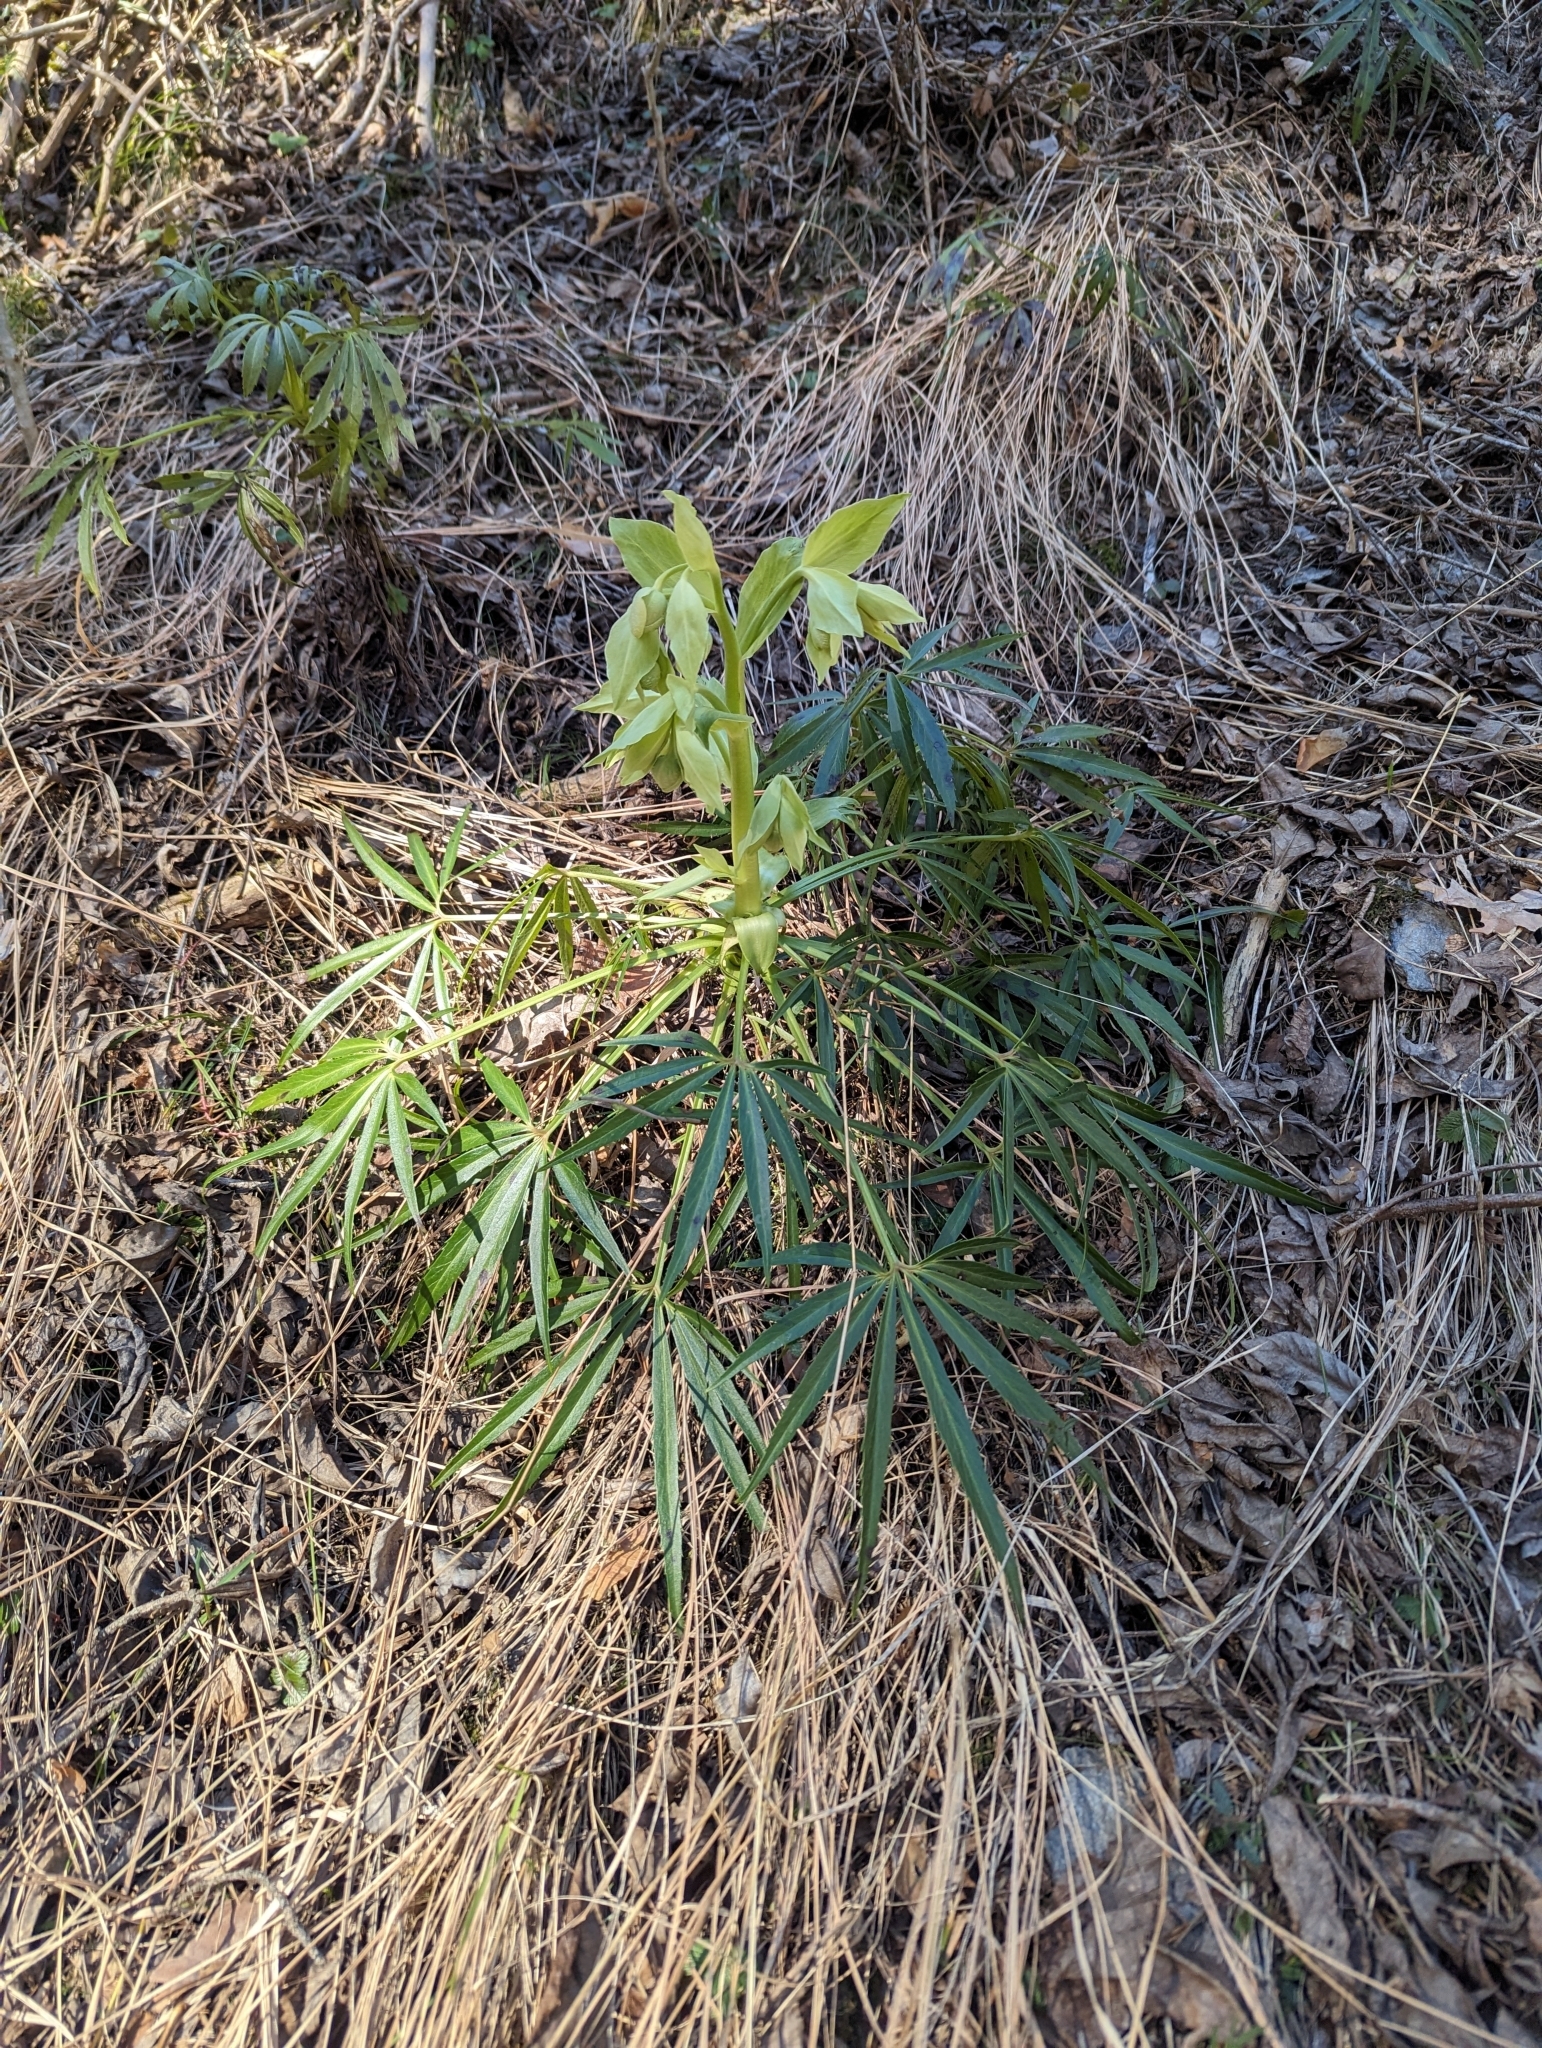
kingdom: Plantae
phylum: Tracheophyta
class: Magnoliopsida
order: Ranunculales
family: Ranunculaceae
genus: Helleborus
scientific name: Helleborus foetidus
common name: Stinking hellebore
